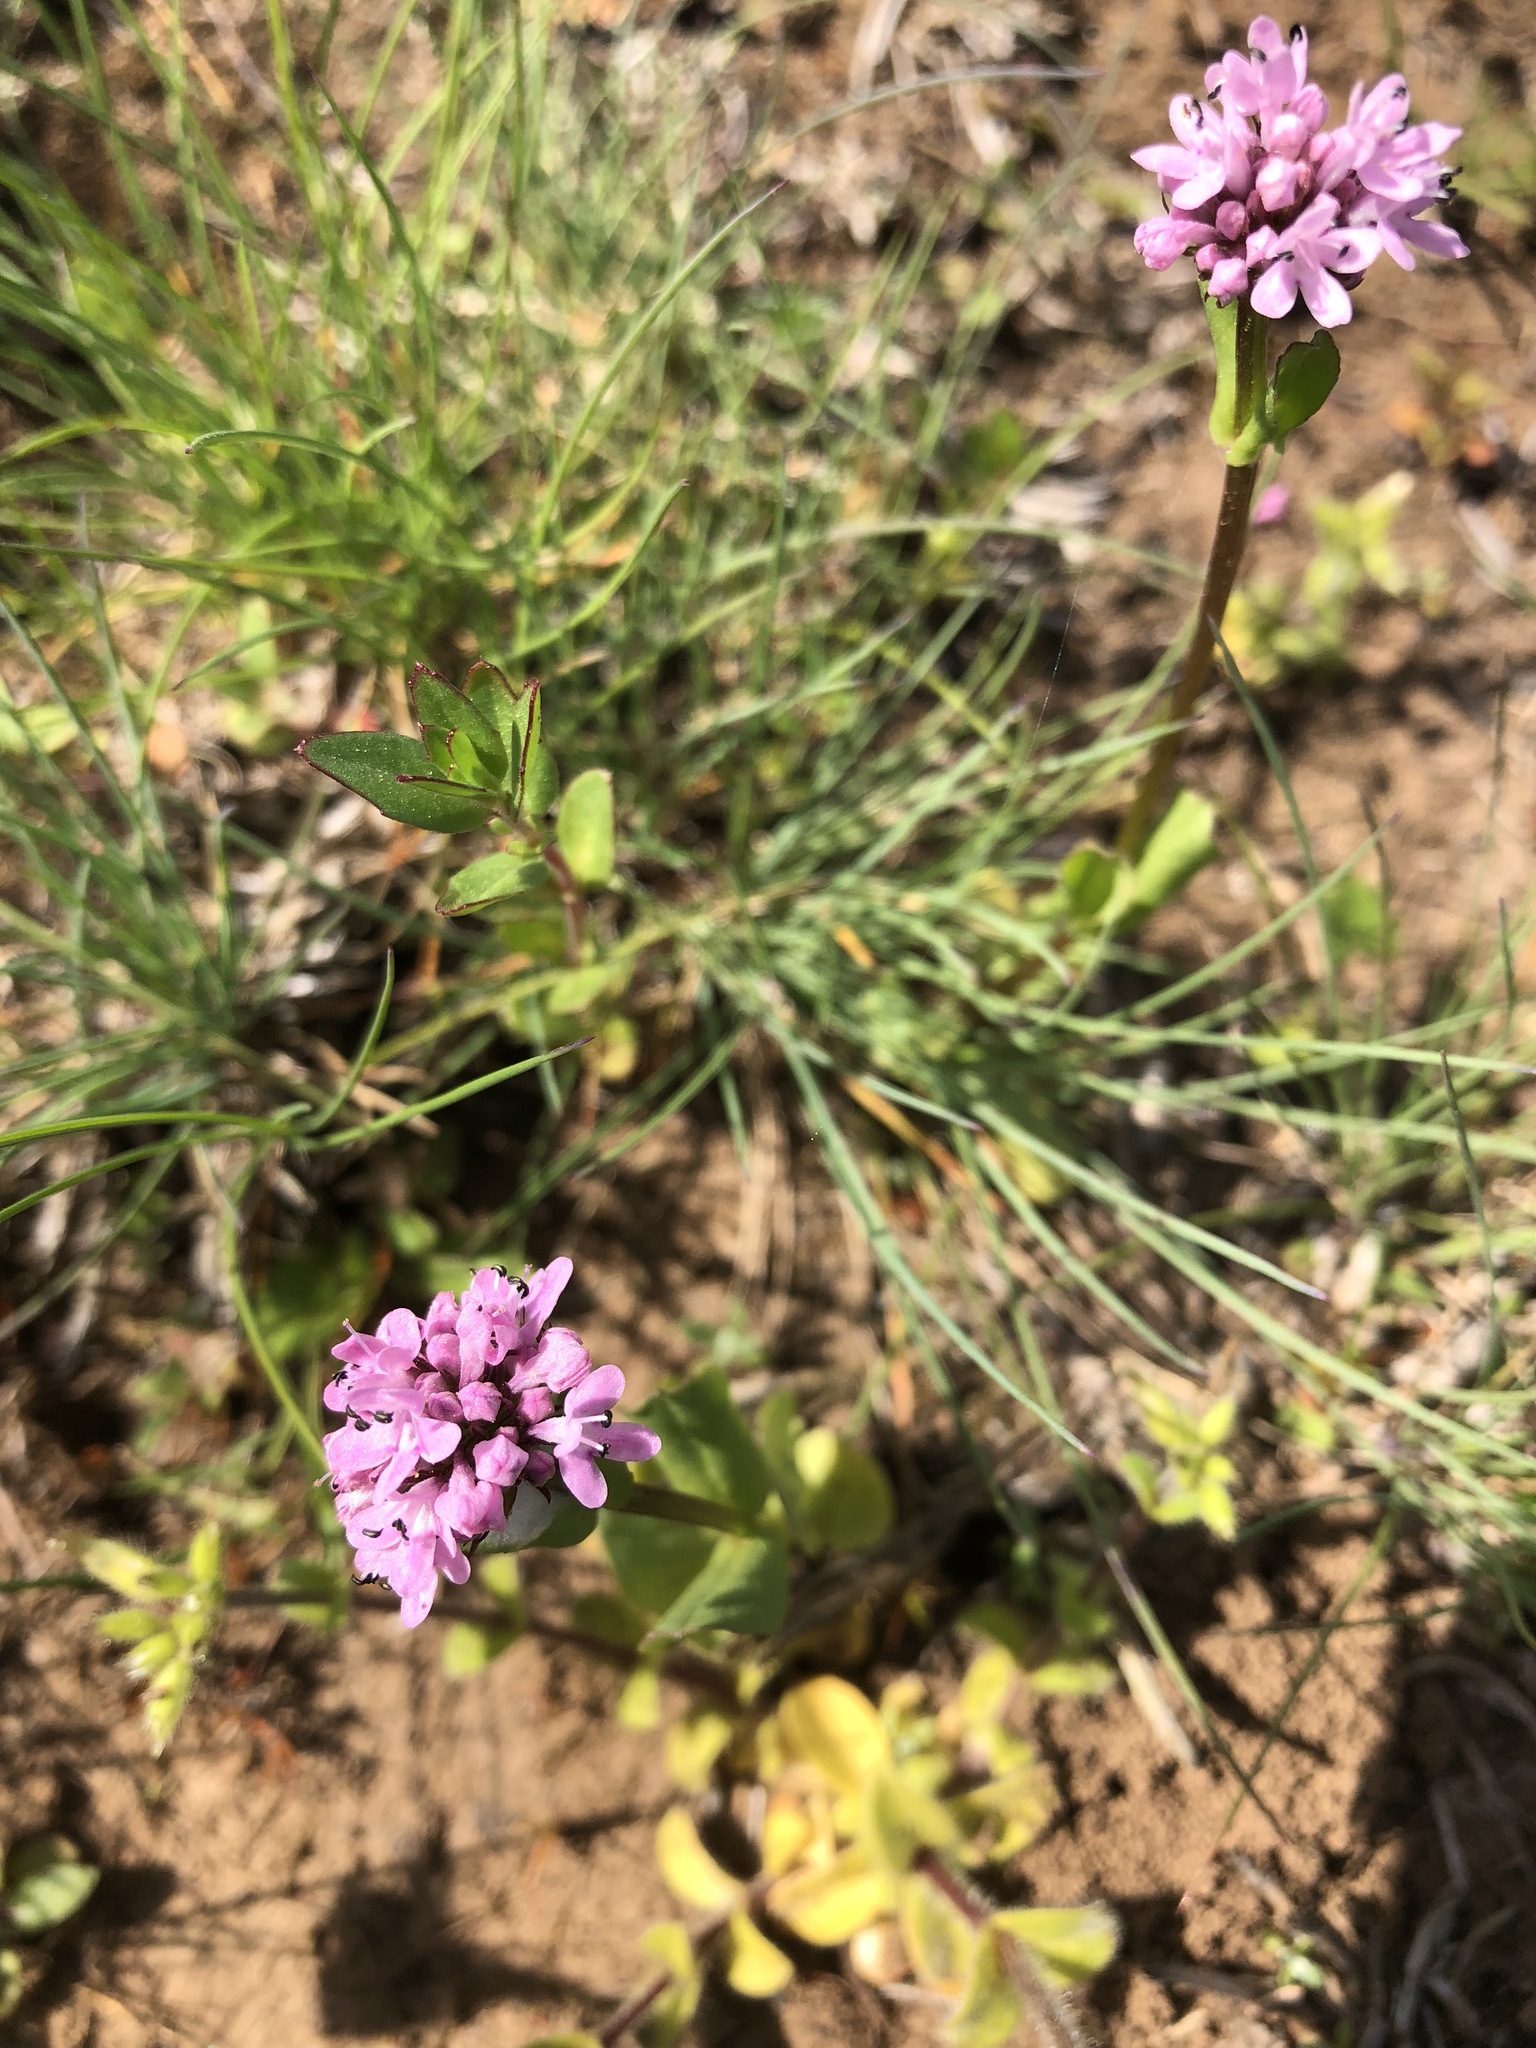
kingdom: Plantae
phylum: Tracheophyta
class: Magnoliopsida
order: Dipsacales
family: Caprifoliaceae
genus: Plectritis
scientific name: Plectritis congesta
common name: Pink plectritis
